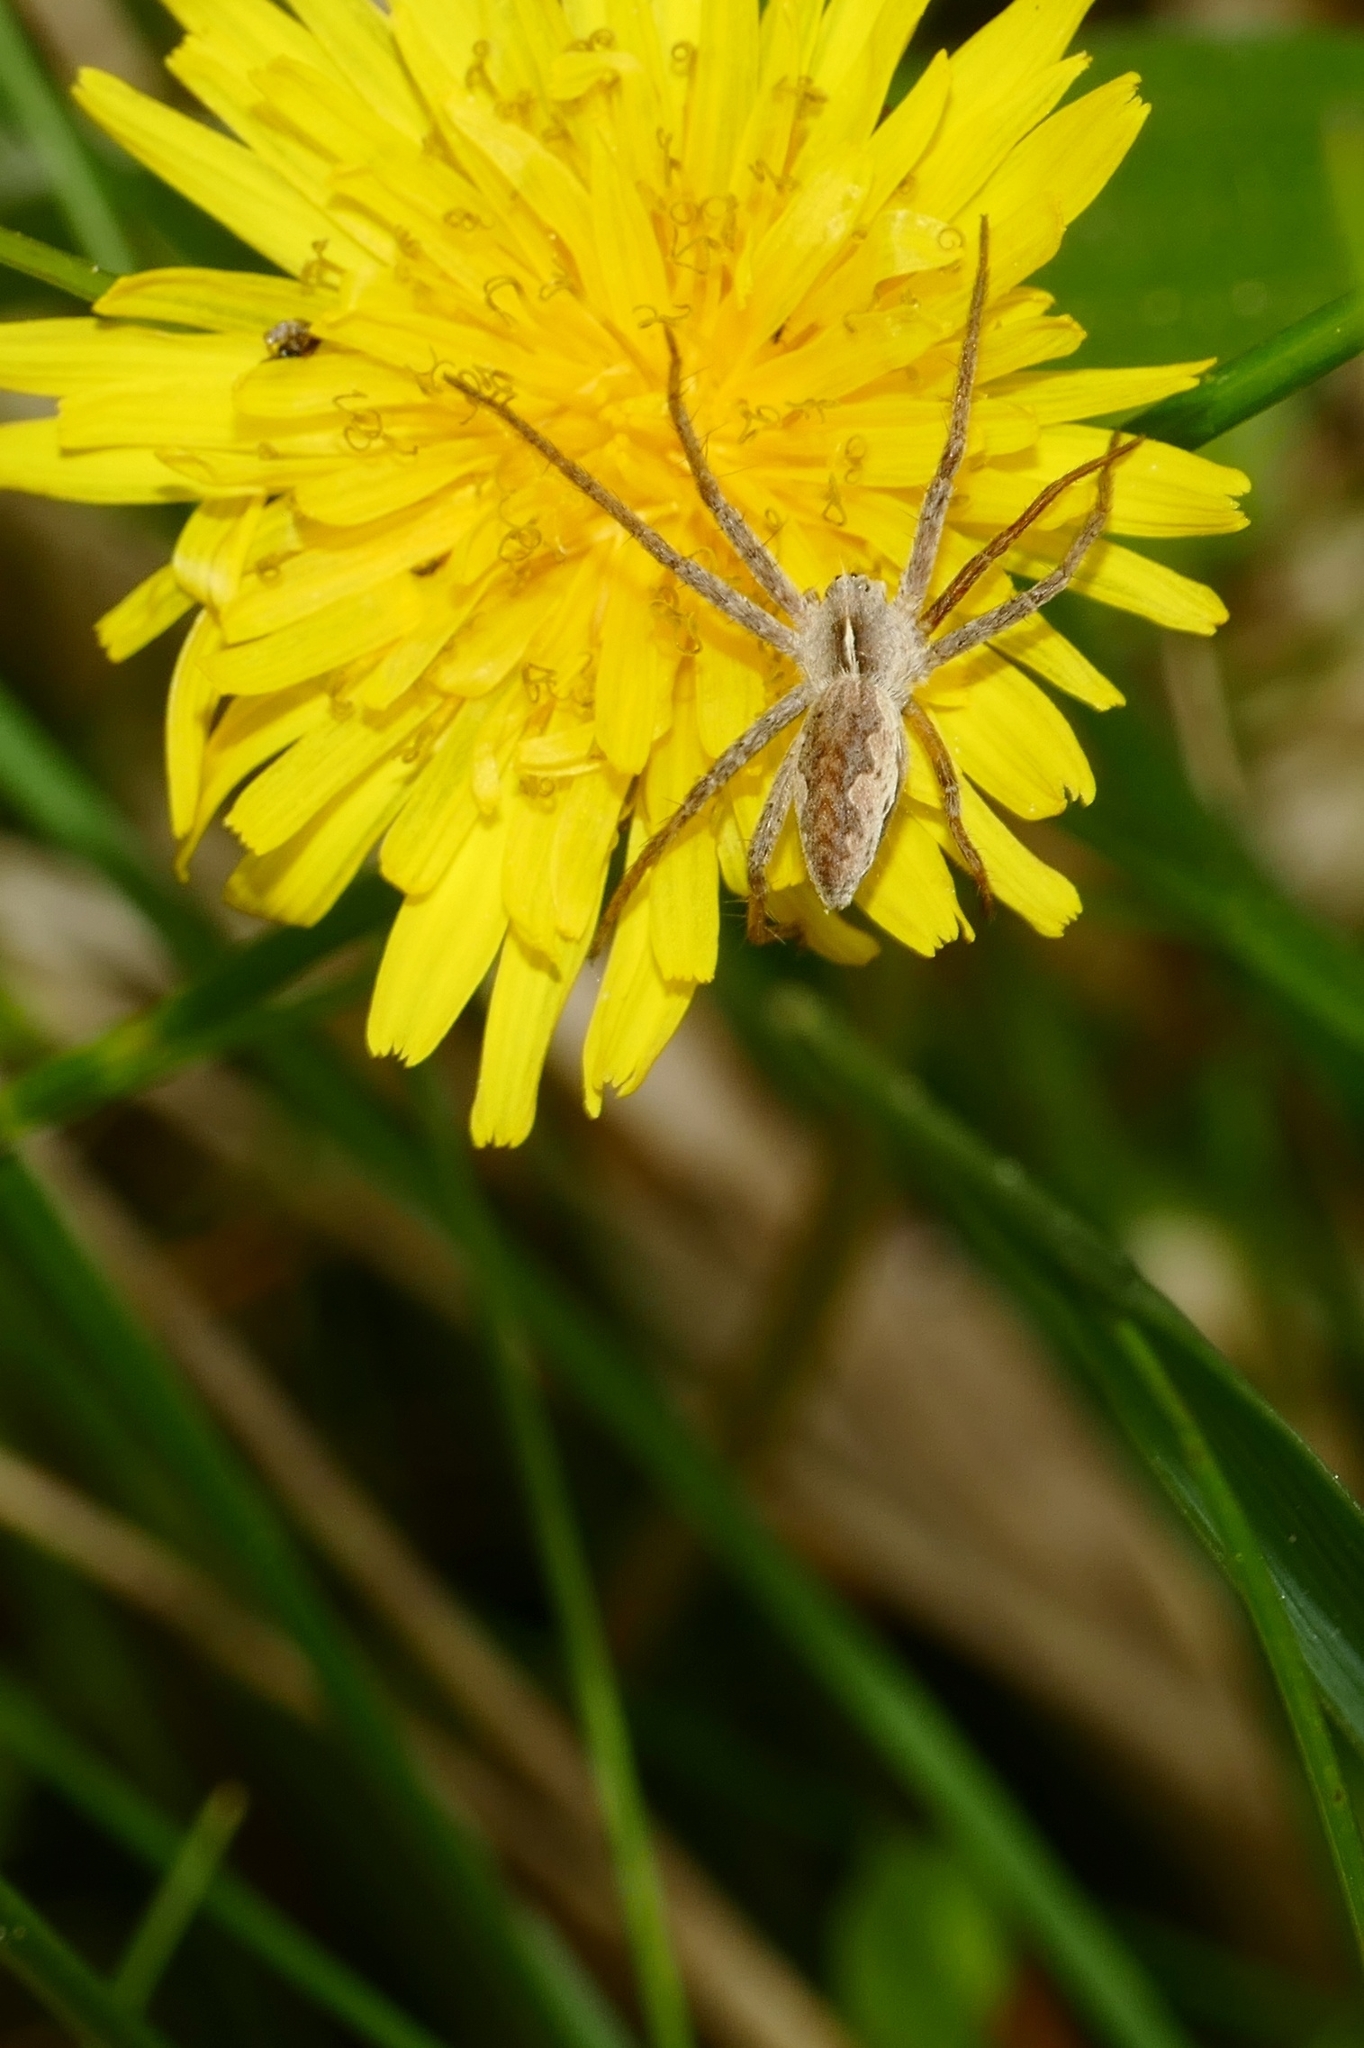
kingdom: Animalia
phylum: Arthropoda
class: Arachnida
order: Araneae
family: Pisauridae
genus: Pisaura
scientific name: Pisaura mirabilis
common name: Tent spider
